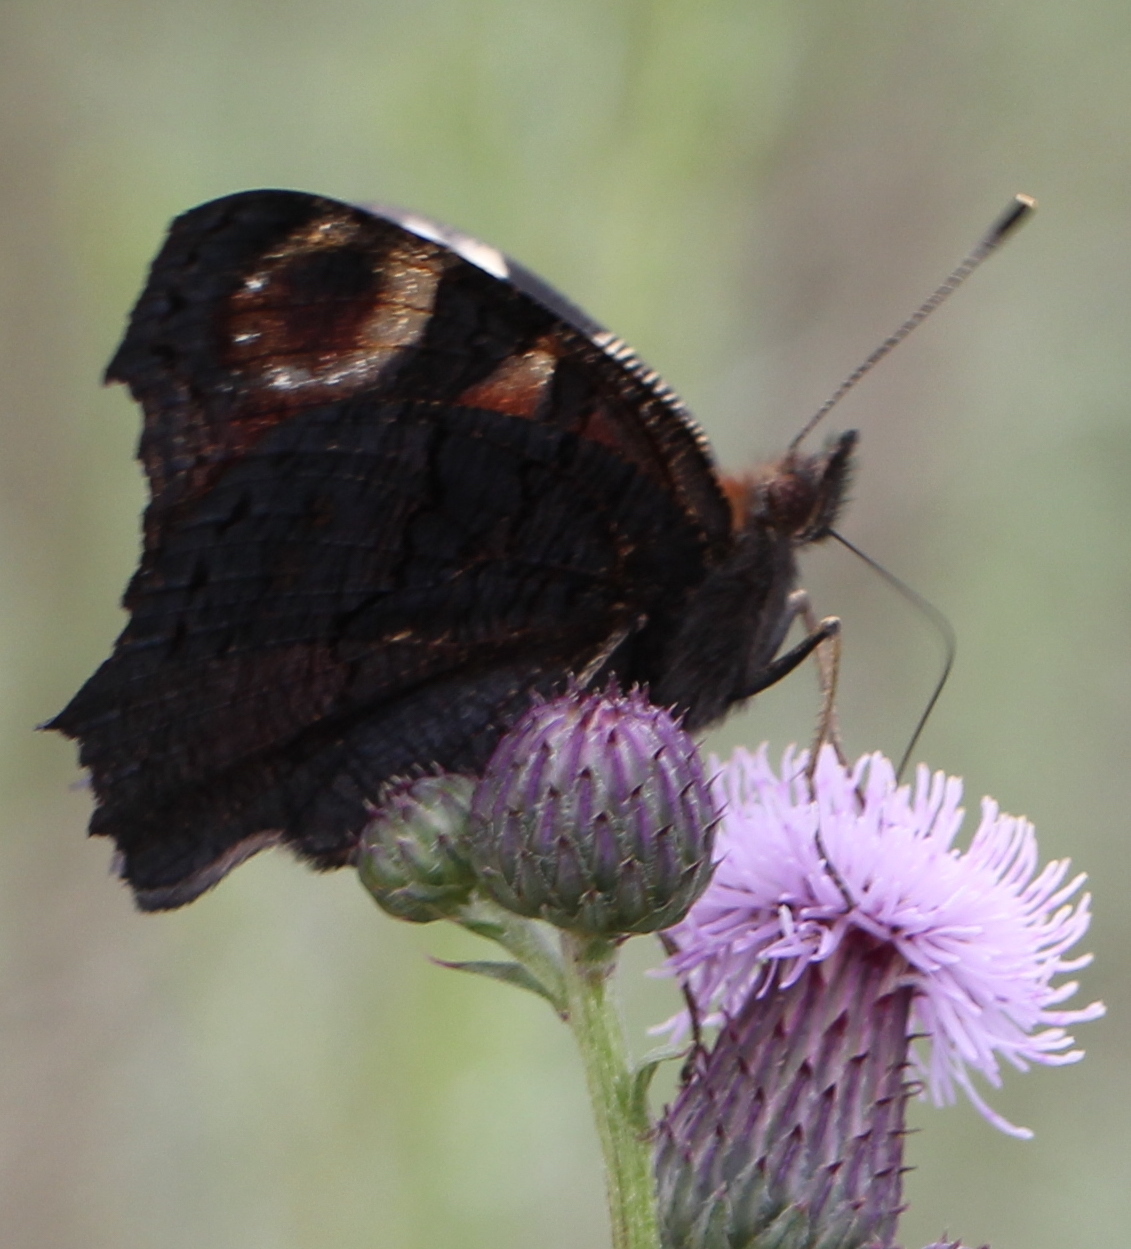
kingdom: Animalia
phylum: Arthropoda
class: Insecta
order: Lepidoptera
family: Nymphalidae
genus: Aglais
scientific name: Aglais io
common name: Peacock
